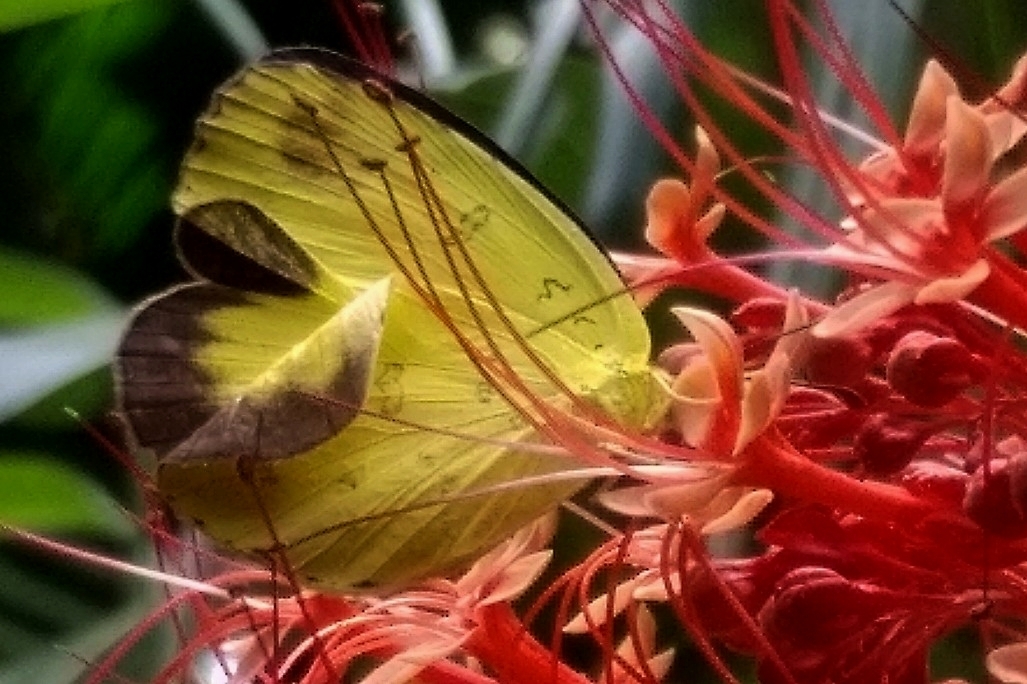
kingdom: Animalia
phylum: Arthropoda
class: Insecta
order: Lepidoptera
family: Pieridae
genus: Eurema
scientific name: Eurema blanda
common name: Three-spot grass yellow
